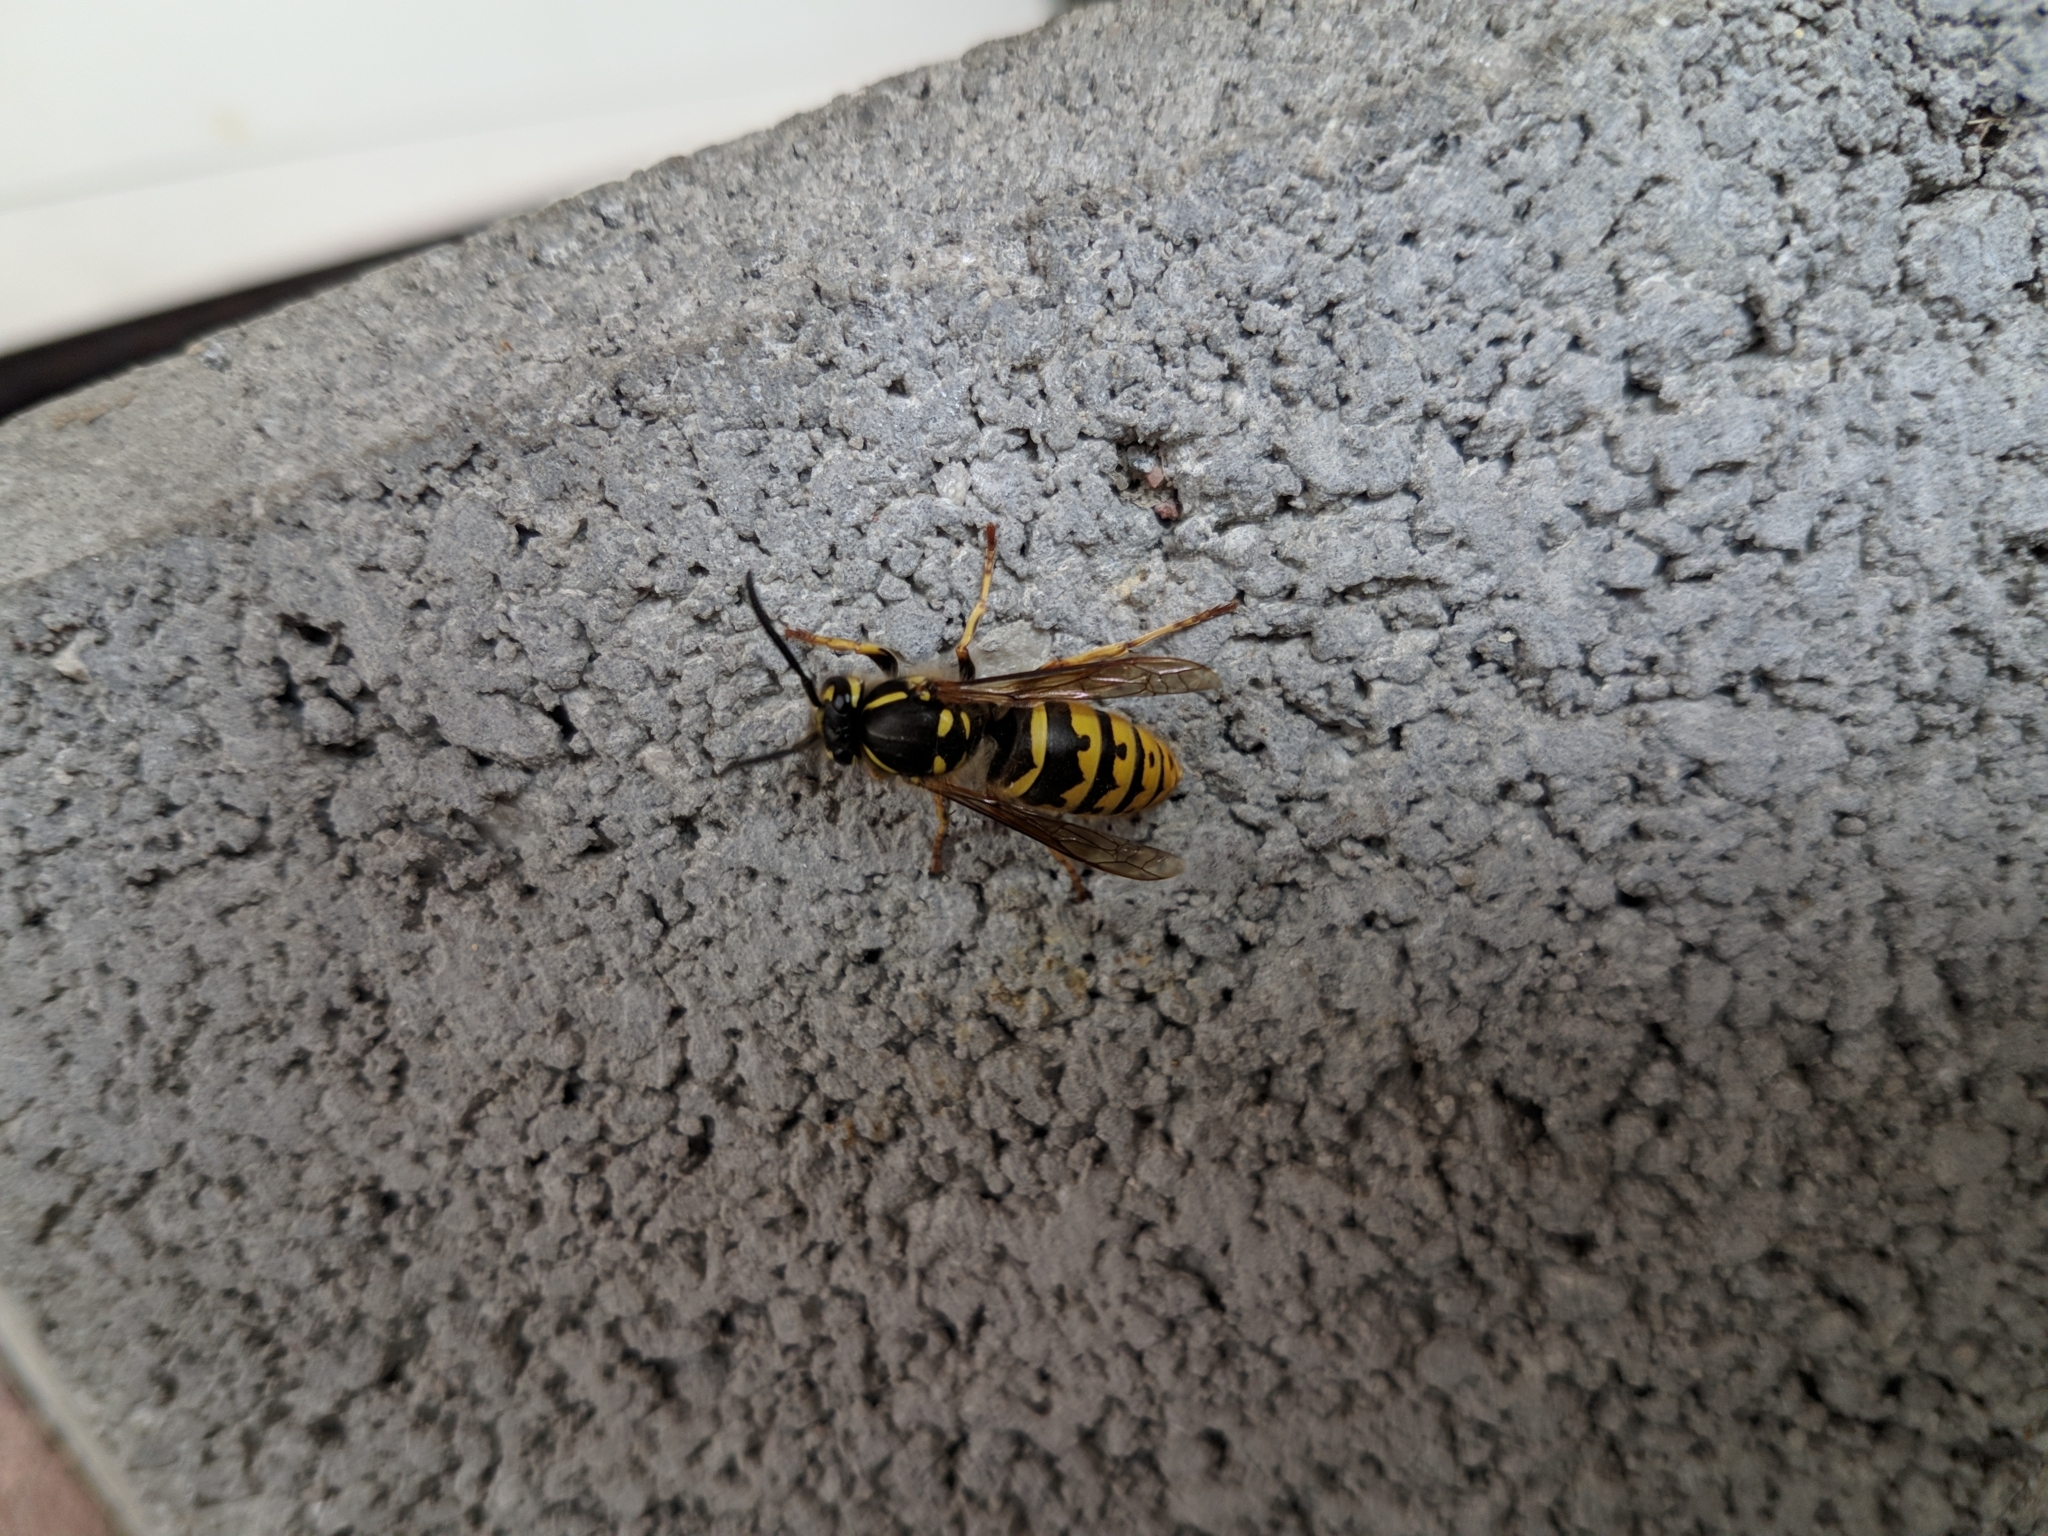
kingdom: Animalia
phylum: Arthropoda
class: Insecta
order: Hymenoptera
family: Vespidae
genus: Vespula
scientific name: Vespula vulgaris
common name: Common wasp
